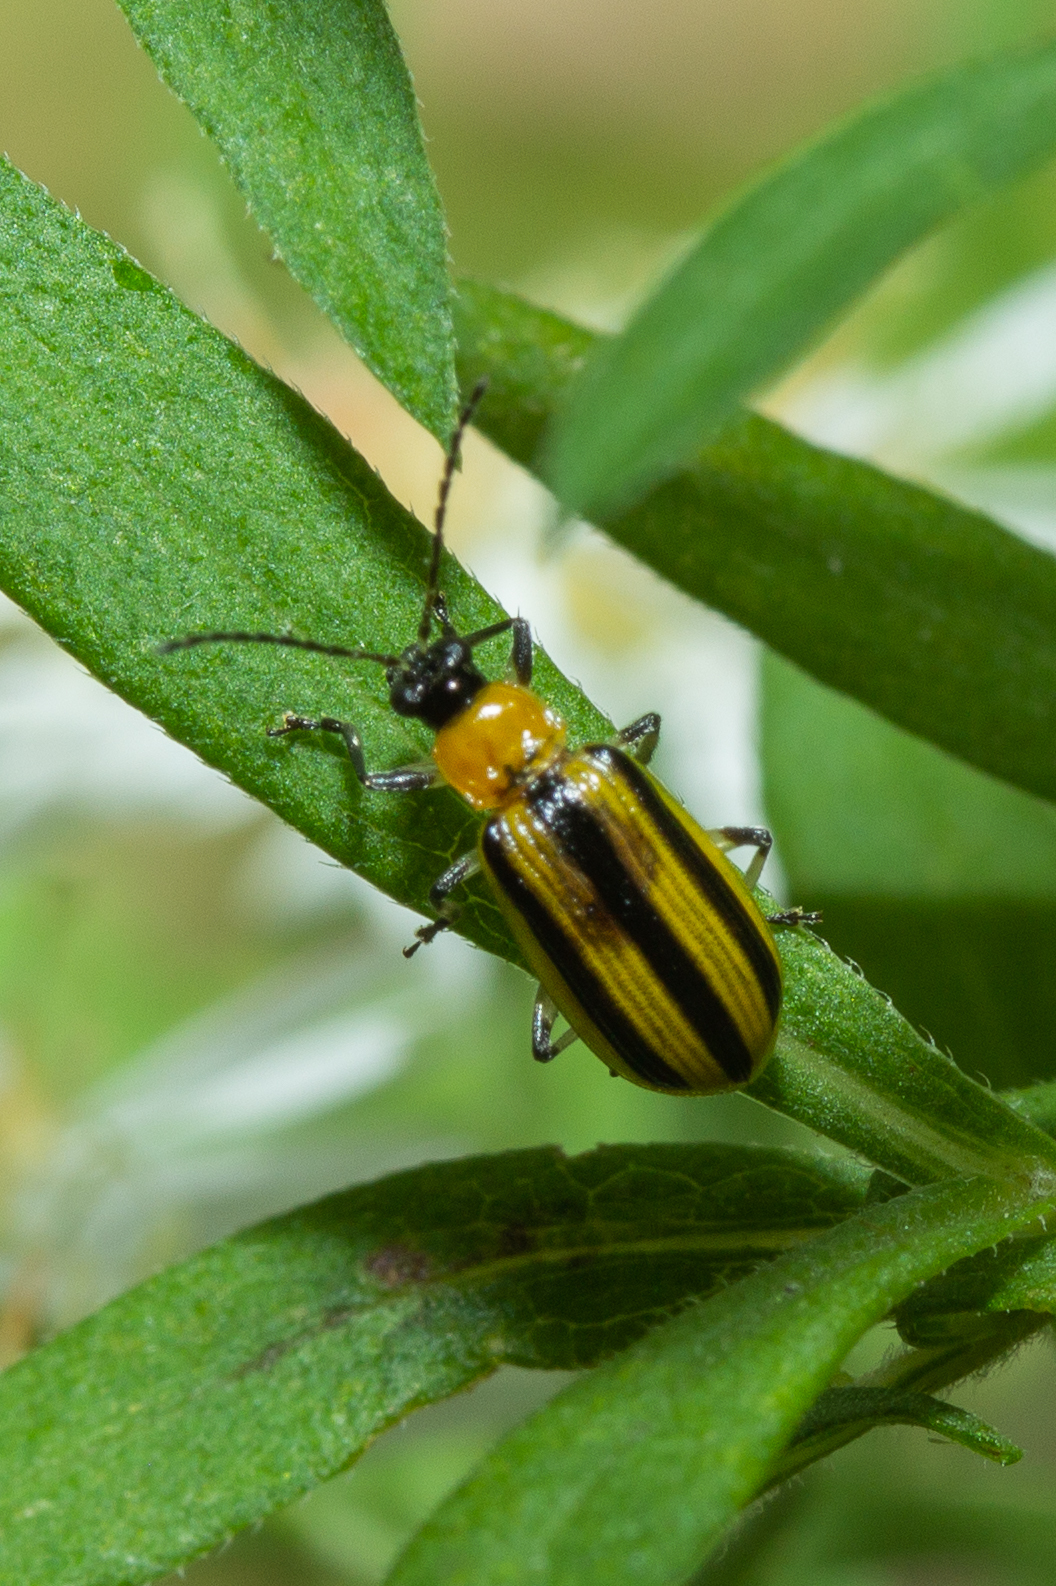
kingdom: Animalia
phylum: Arthropoda
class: Insecta
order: Coleoptera
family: Chrysomelidae
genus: Acalymma
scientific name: Acalymma vittatum
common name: Striped cucumber beetle
